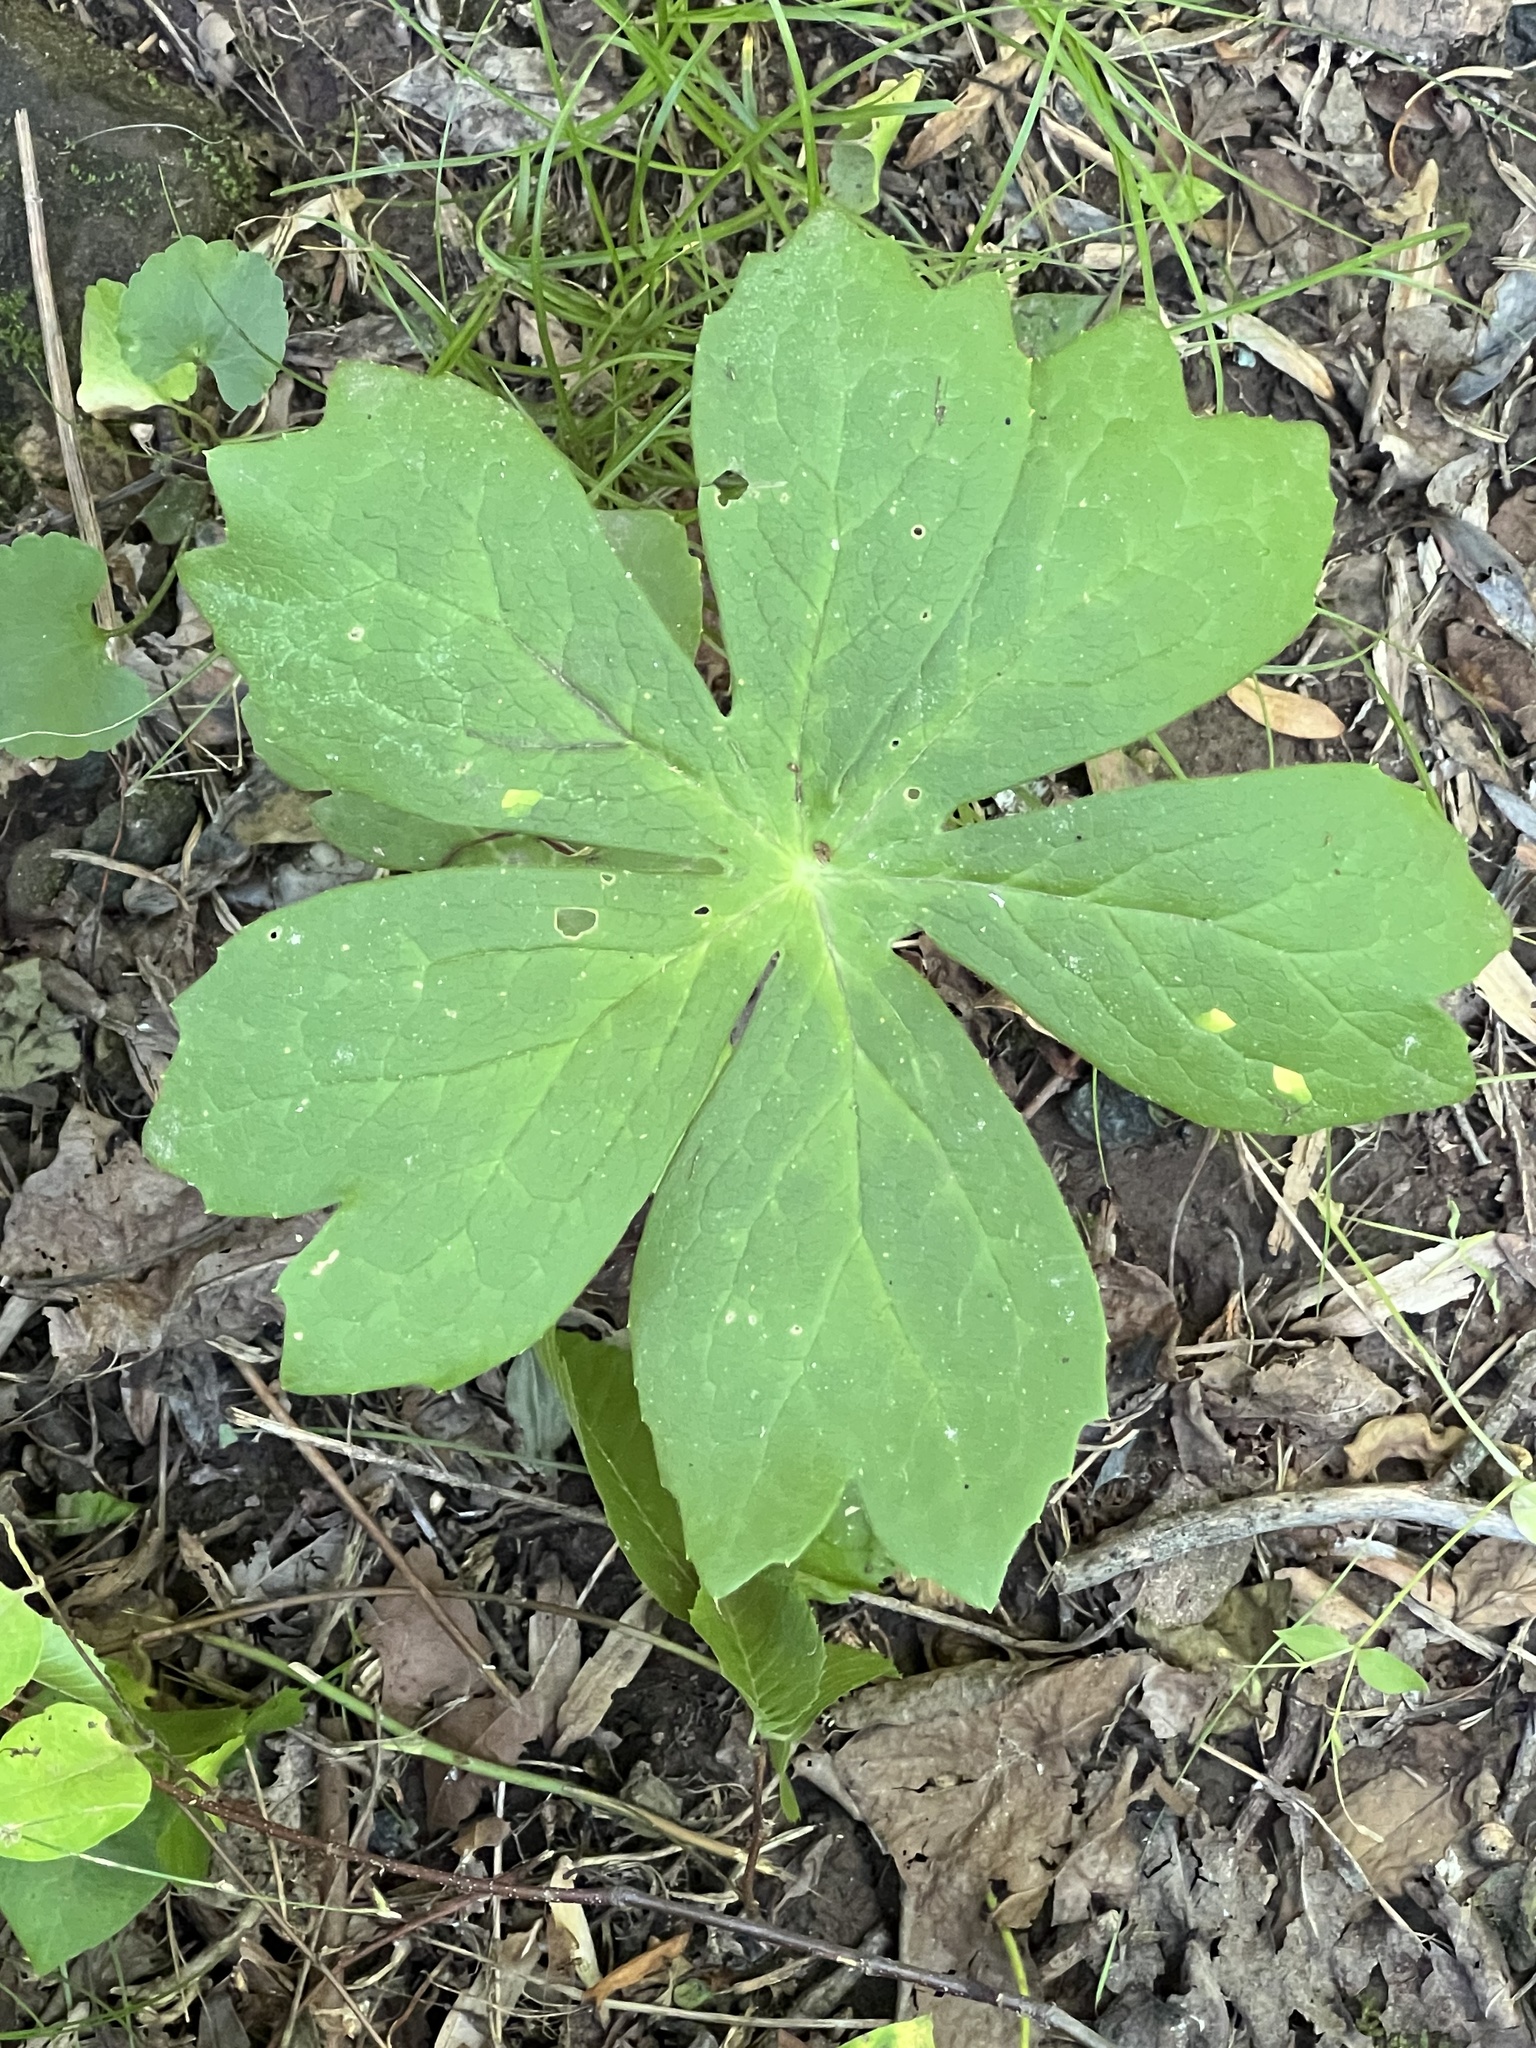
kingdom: Fungi
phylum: Basidiomycota
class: Pucciniomycetes
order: Pucciniales
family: Pucciniaceae
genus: Puccinia
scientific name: Puccinia podophylli
